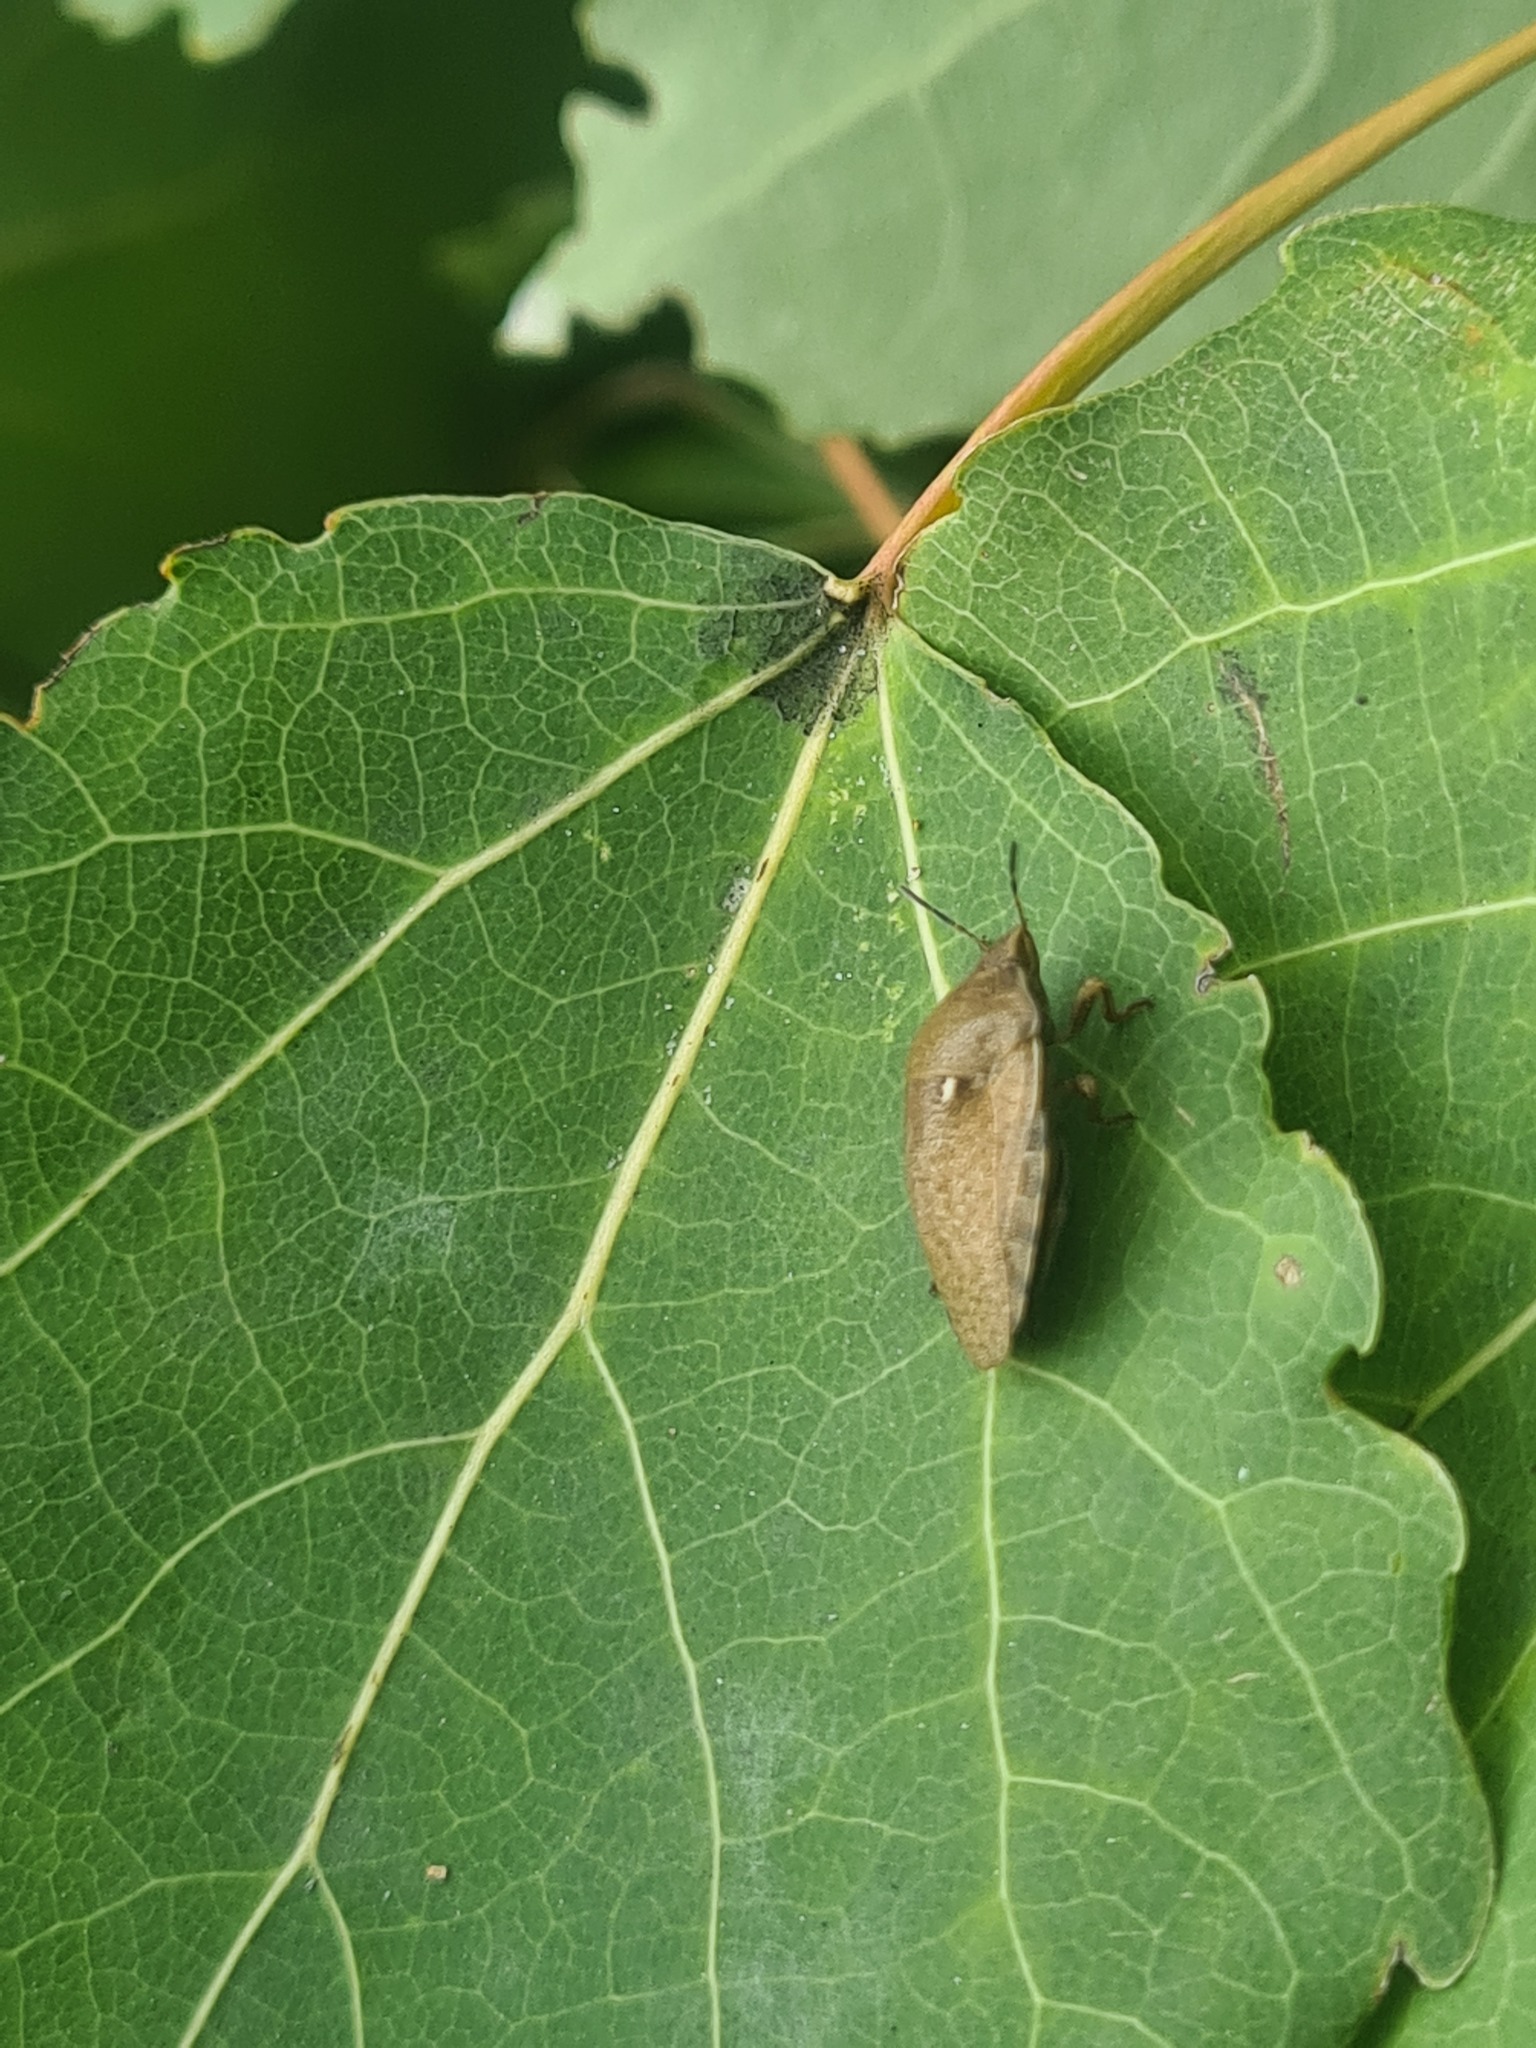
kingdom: Animalia
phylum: Arthropoda
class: Insecta
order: Hemiptera
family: Scutelleridae
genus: Eurygaster
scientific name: Eurygaster testudinaria
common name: Tortoise bug
